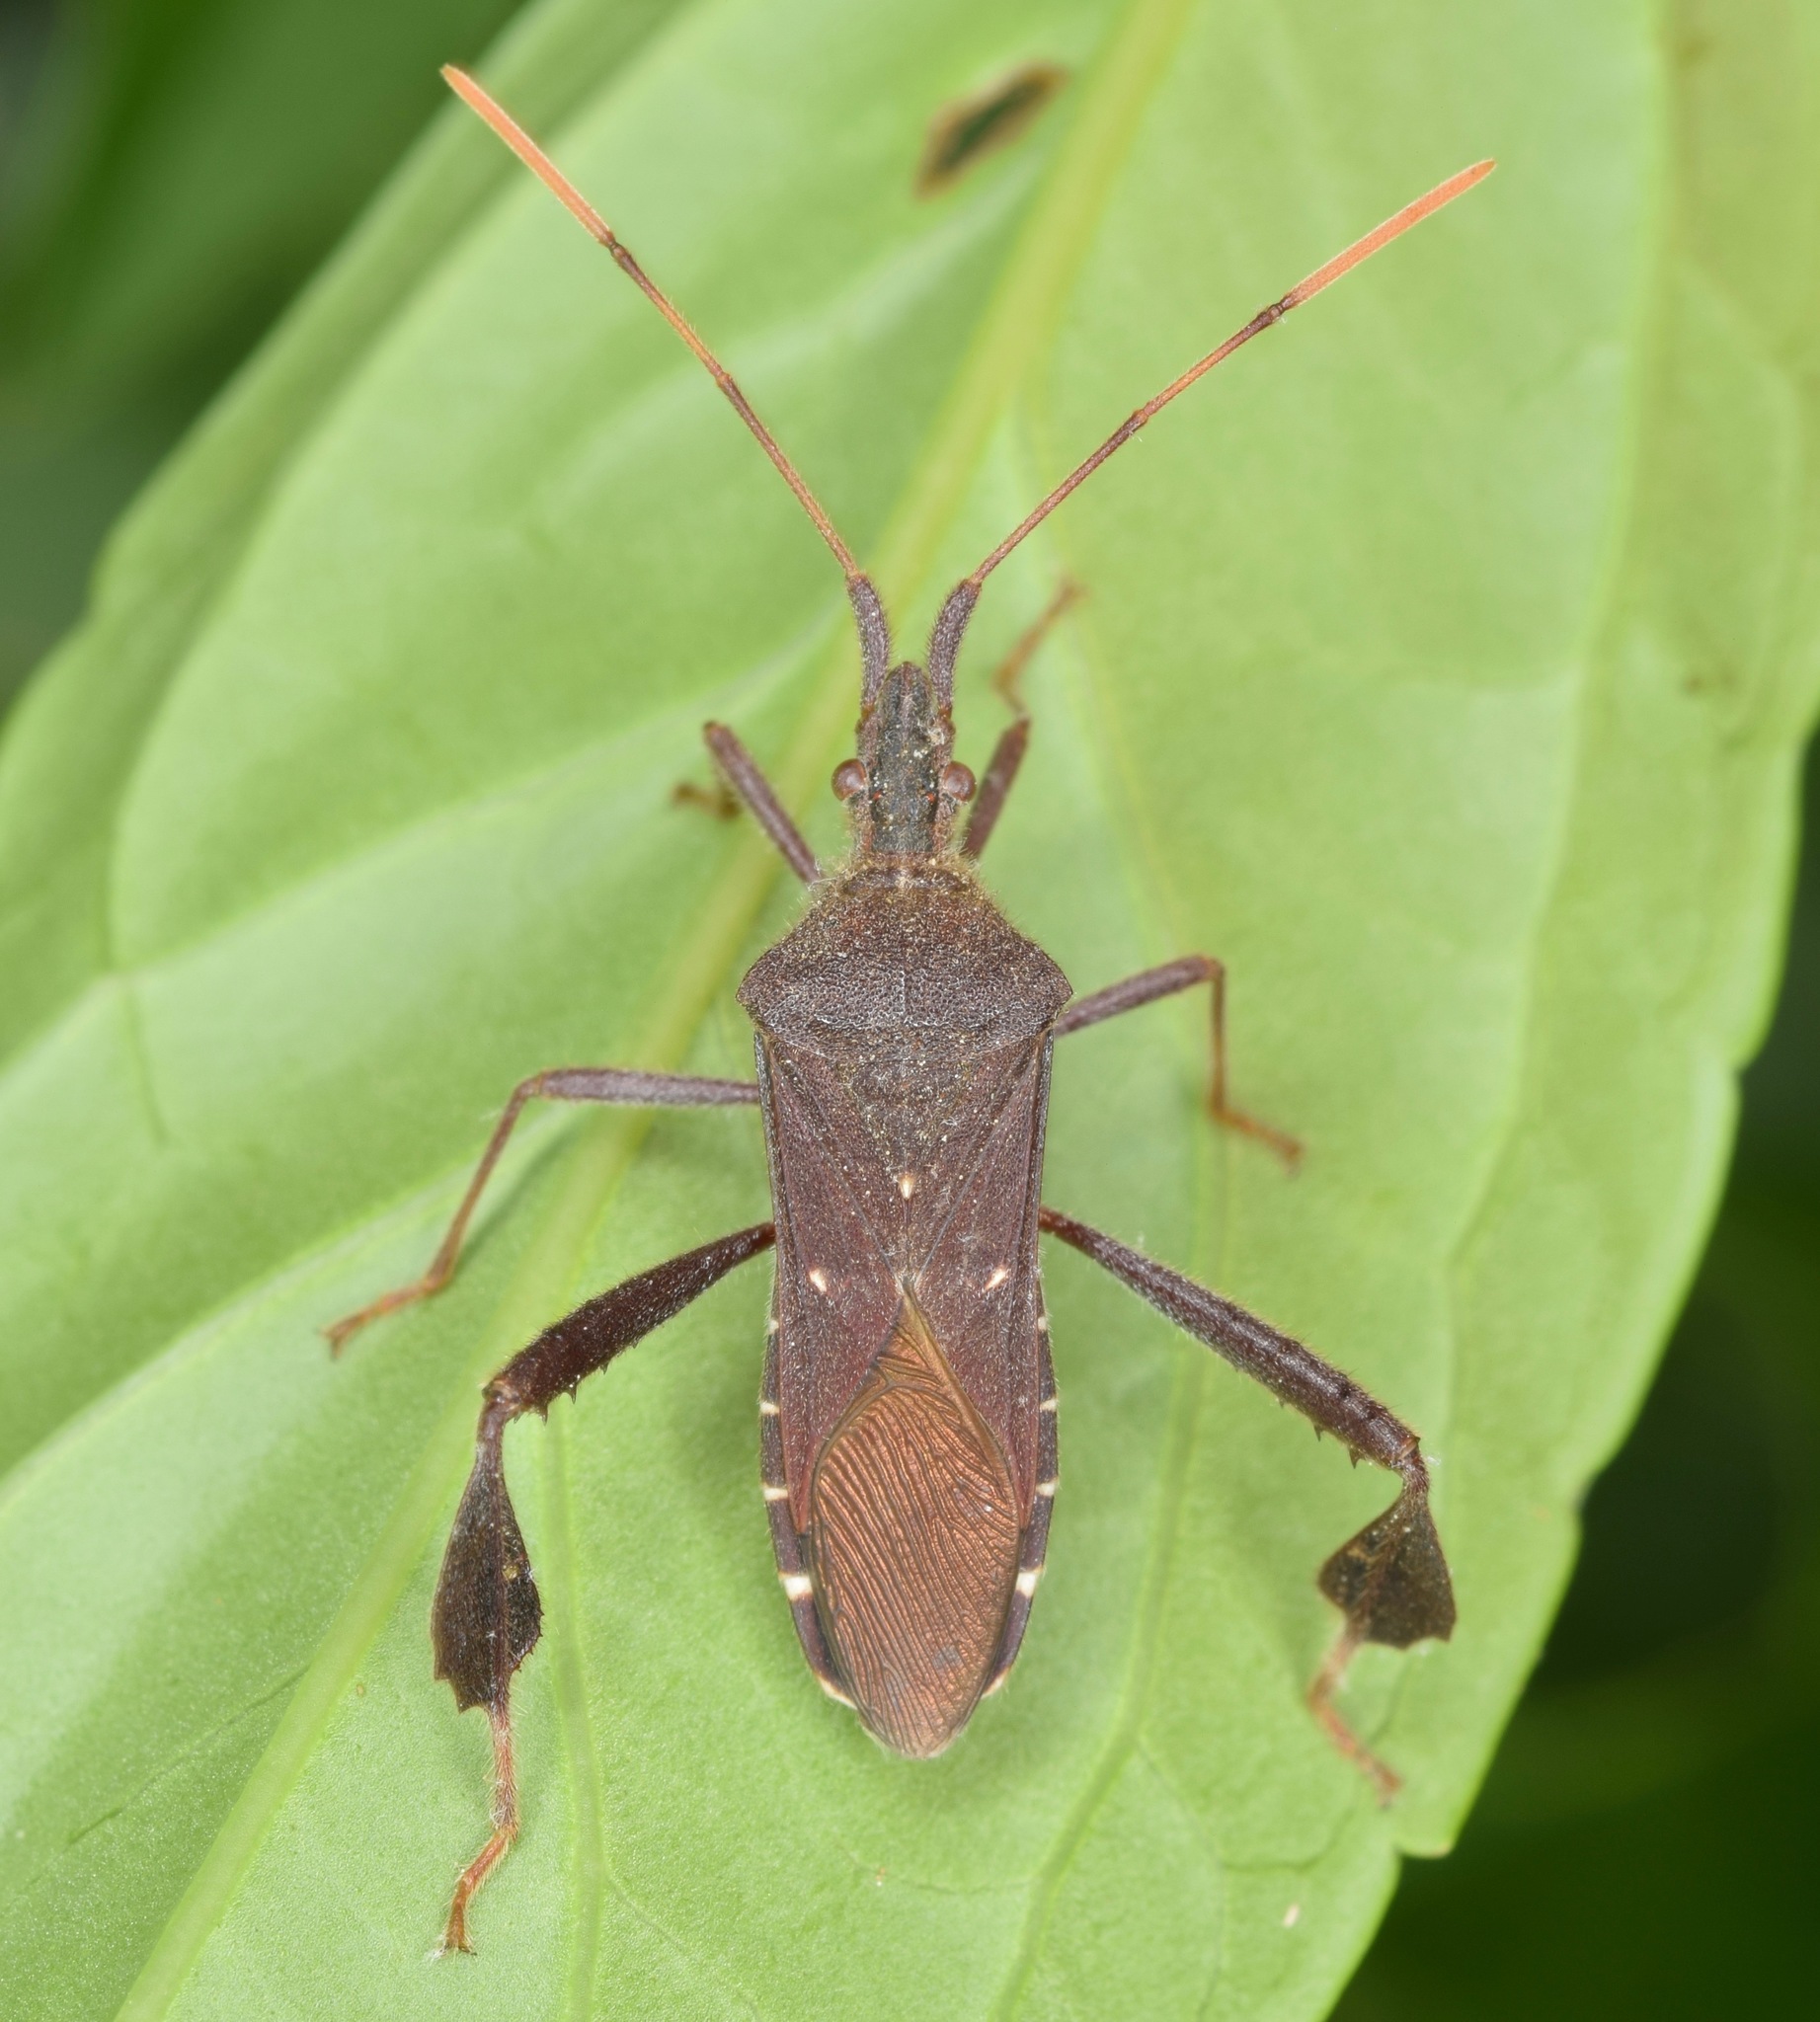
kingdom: Animalia
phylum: Arthropoda
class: Insecta
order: Hemiptera
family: Coreidae
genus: Leptoglossus
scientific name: Leptoglossus oppositus
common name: Northern leaf-footed bug
